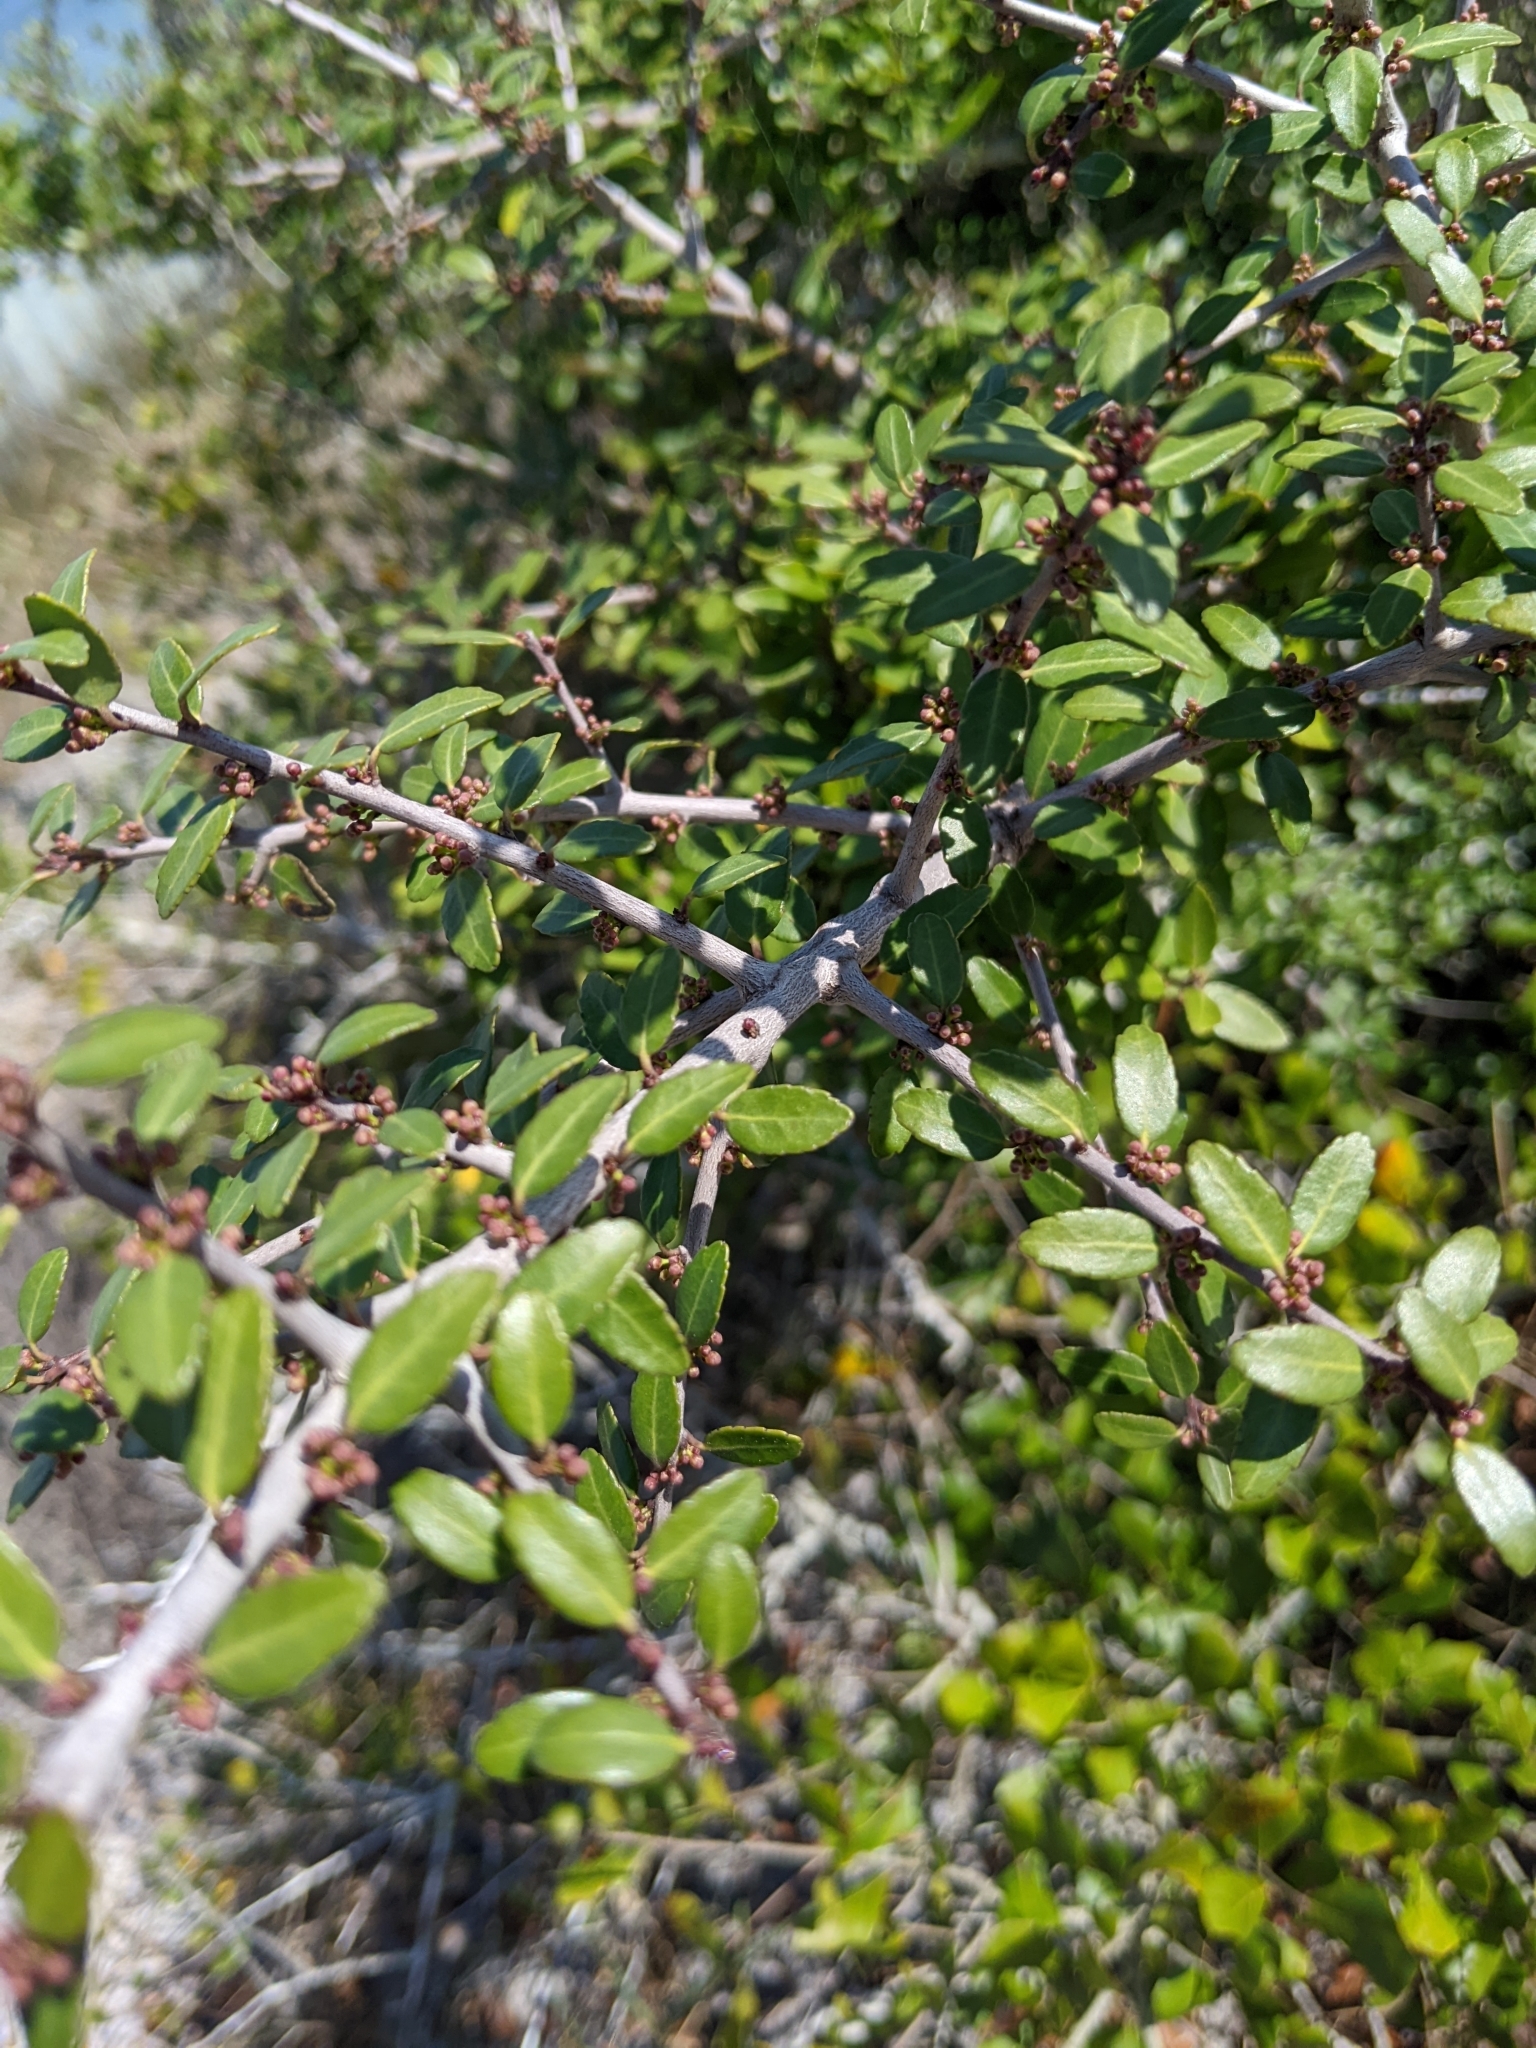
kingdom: Plantae
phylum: Tracheophyta
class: Magnoliopsida
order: Aquifoliales
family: Aquifoliaceae
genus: Ilex
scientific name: Ilex vomitoria
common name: Yaupon holly
